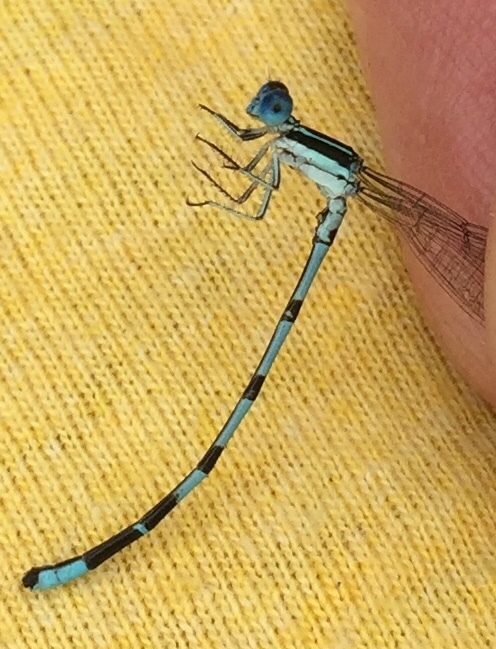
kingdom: Animalia
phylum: Arthropoda
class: Insecta
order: Odonata
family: Coenagrionidae
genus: Argia
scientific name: Argia bipunctulata
